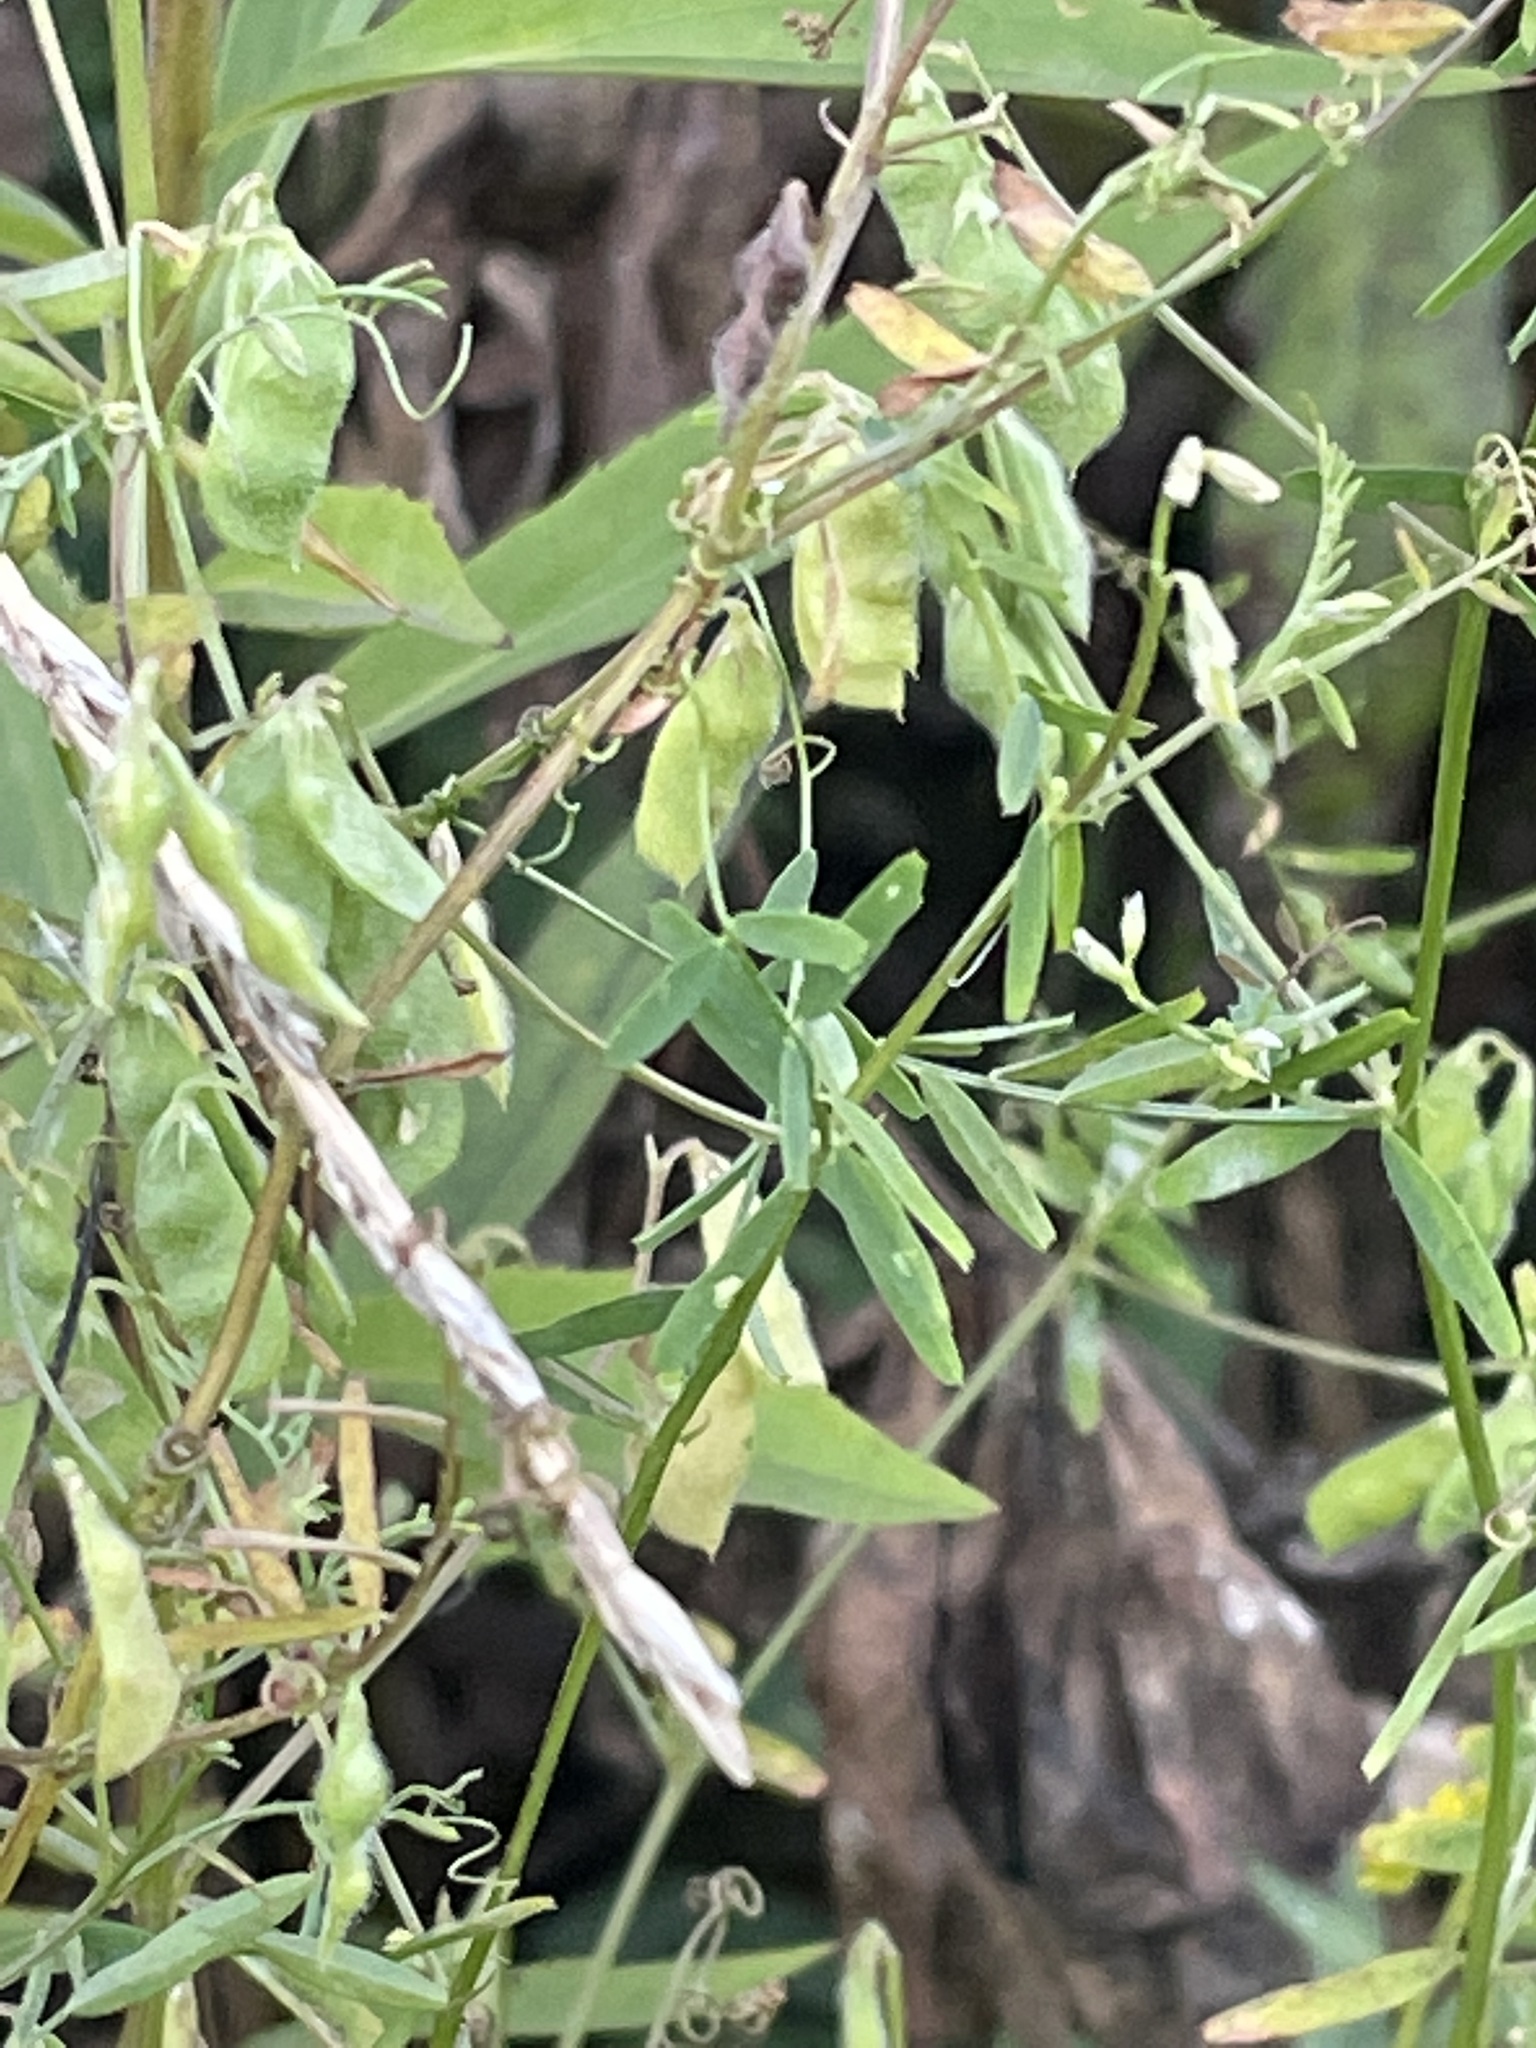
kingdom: Plantae
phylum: Tracheophyta
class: Magnoliopsida
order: Fabales
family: Fabaceae
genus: Vicia
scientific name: Vicia hirsuta
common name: Tiny vetch
